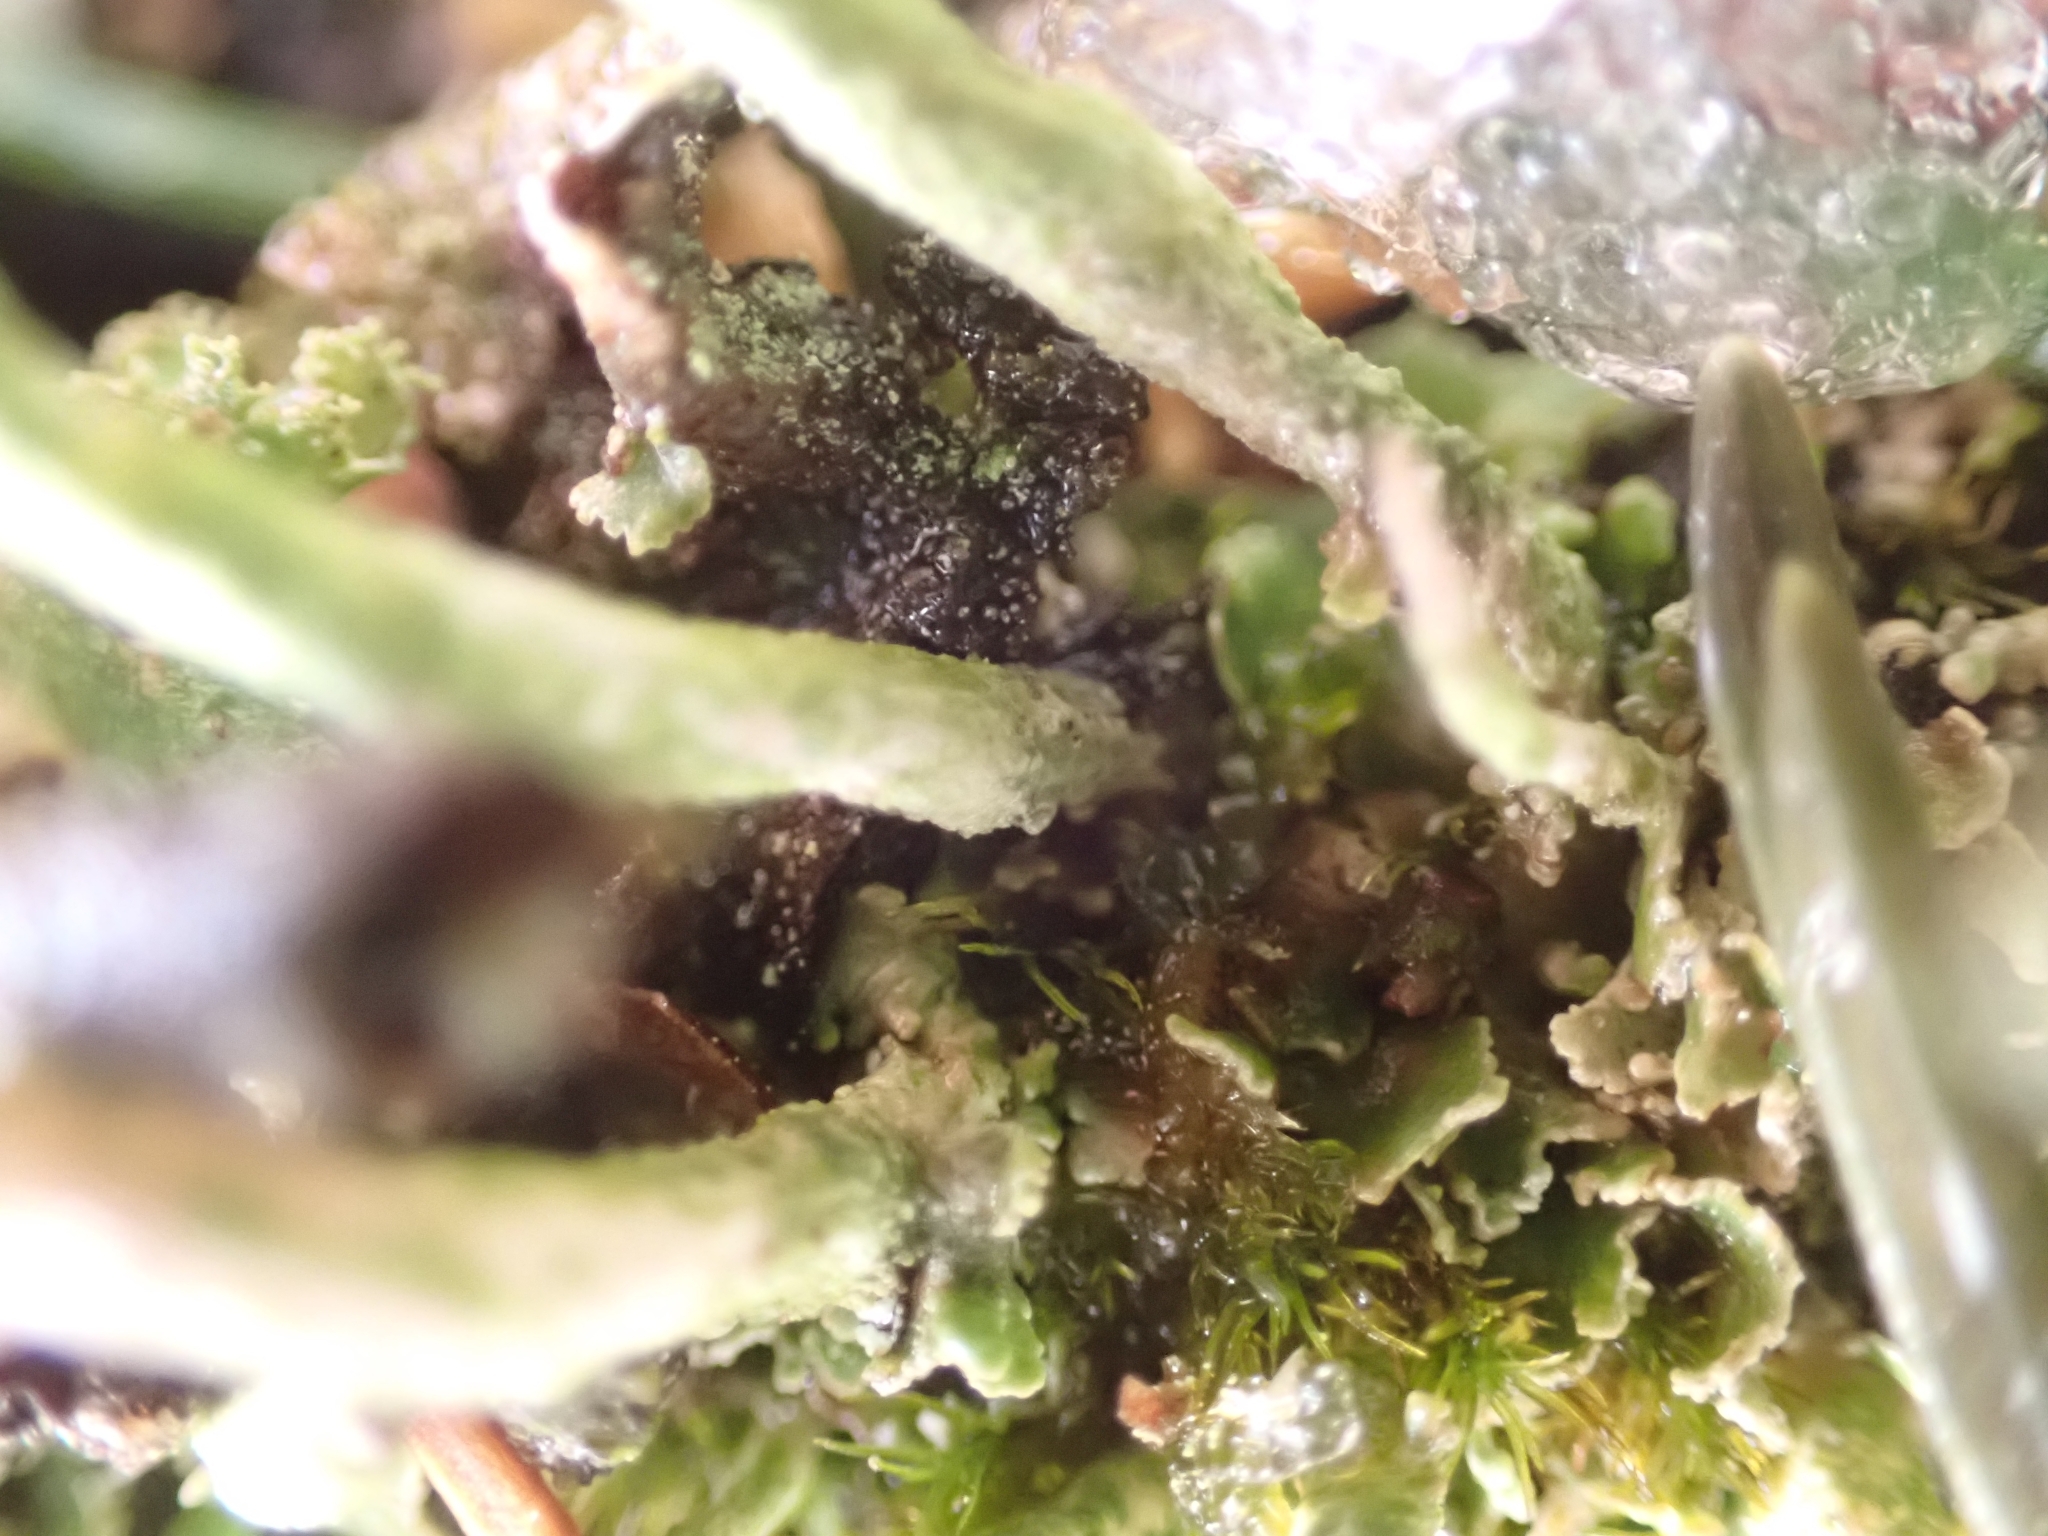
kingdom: Fungi
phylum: Ascomycota
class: Lecanoromycetes
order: Lecanorales
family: Cladoniaceae
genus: Cladonia
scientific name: Cladonia ochrochlora
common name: Smooth-footed powderhorn
